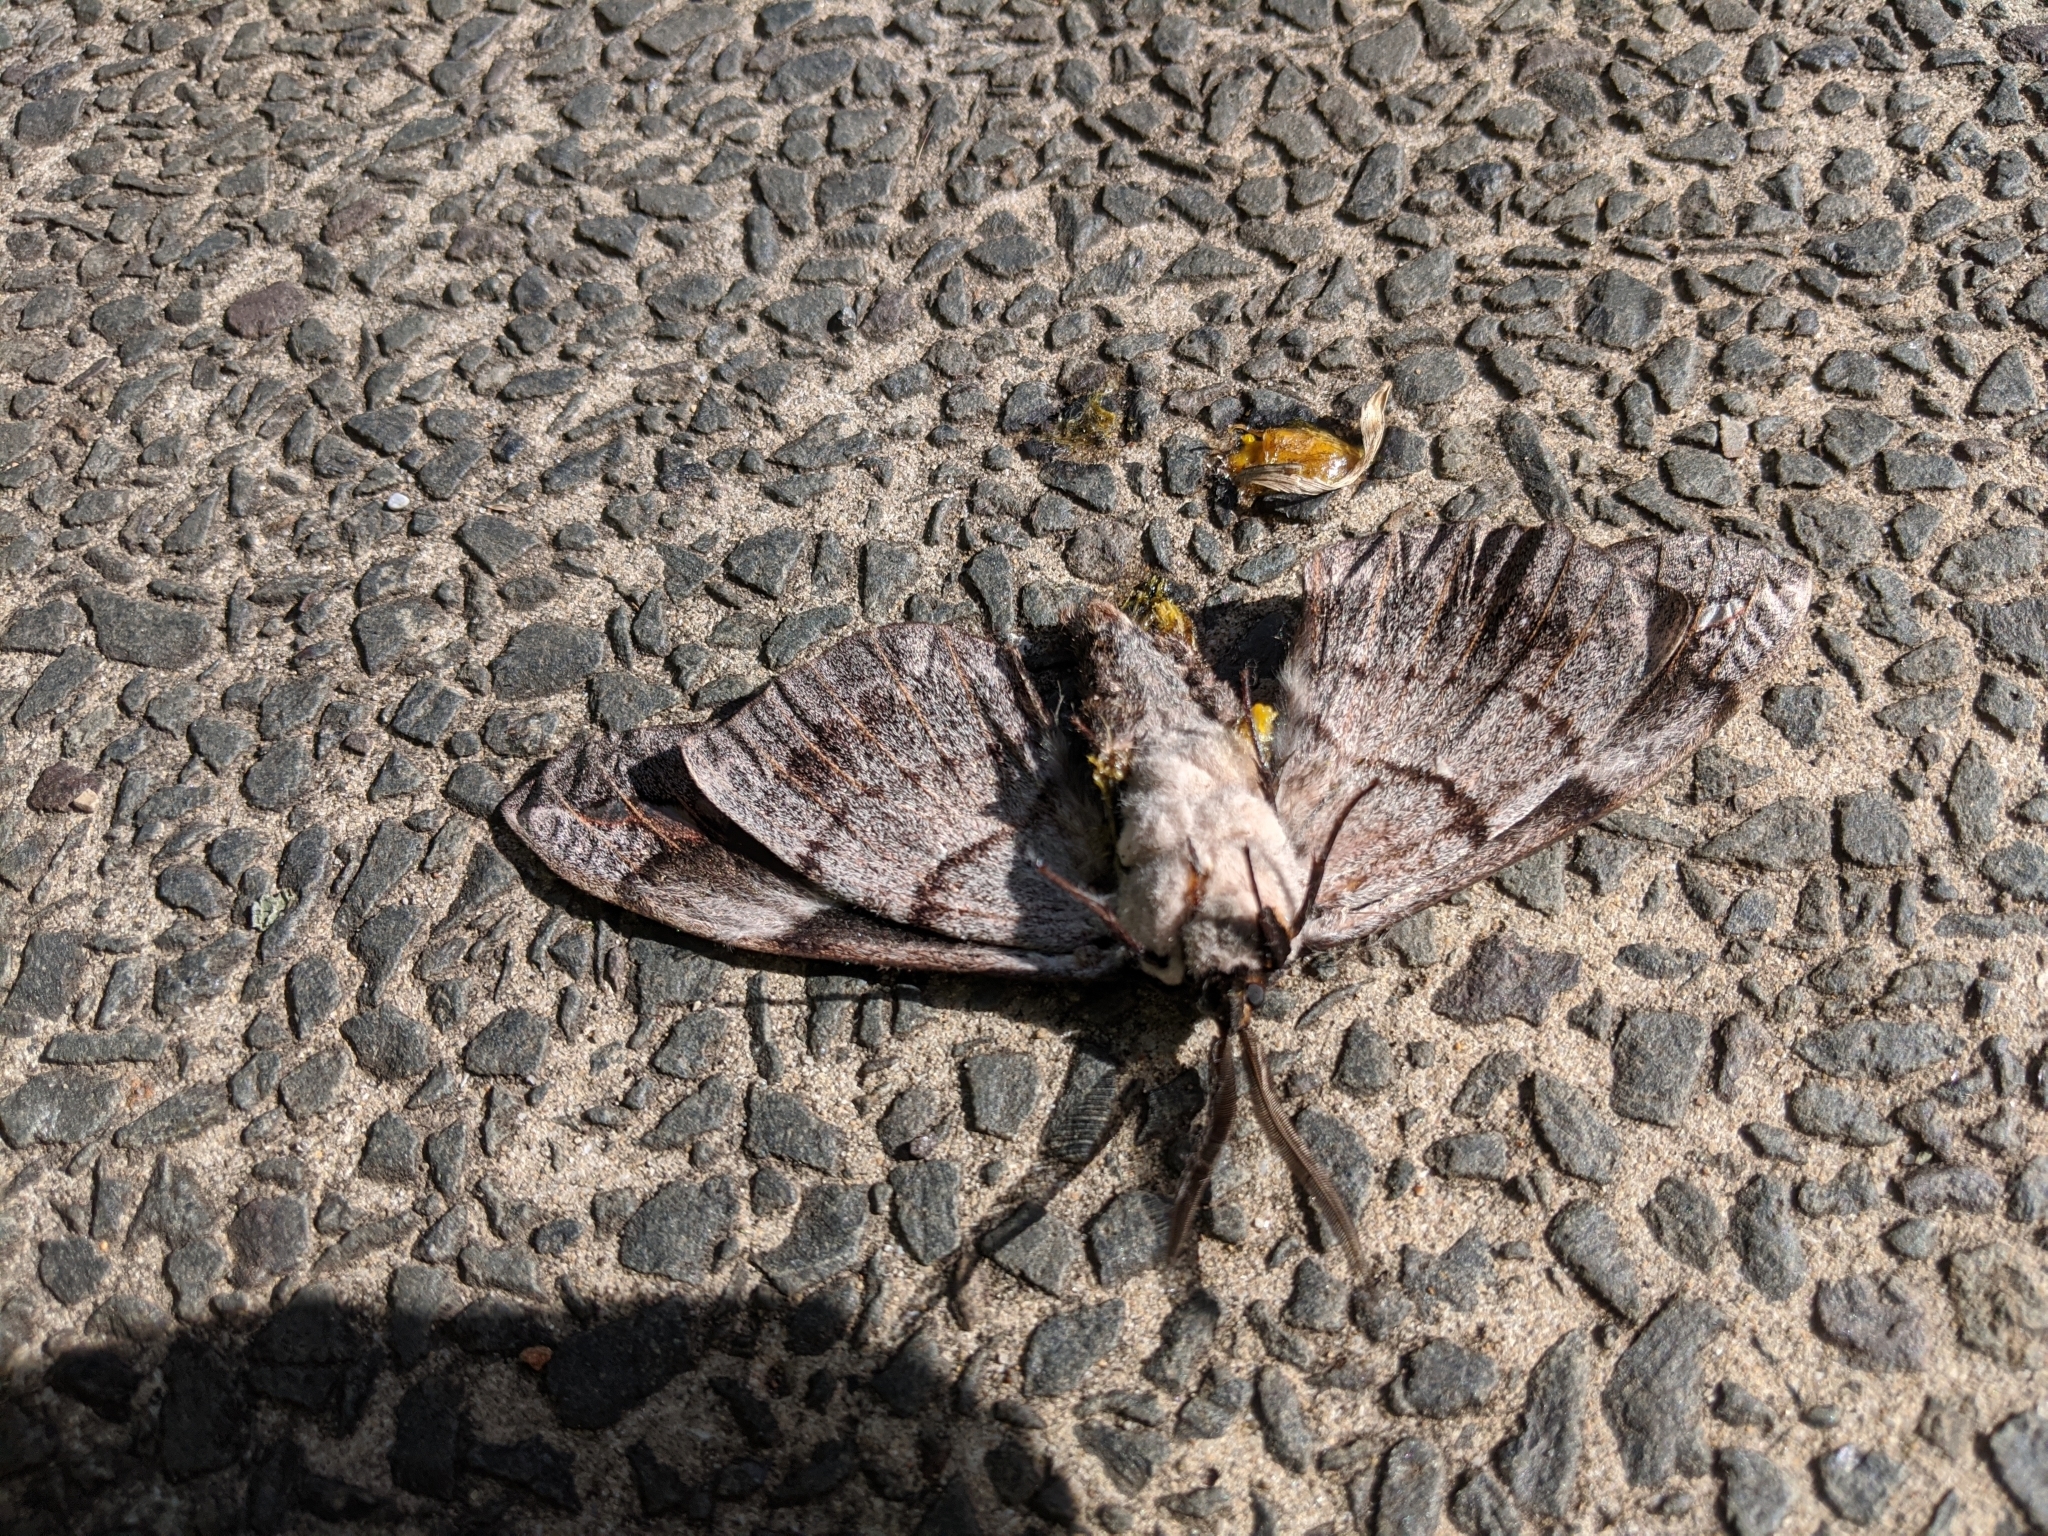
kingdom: Animalia
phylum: Arthropoda
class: Insecta
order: Lepidoptera
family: Anthelidae
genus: Chelepteryx
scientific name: Chelepteryx collesi
